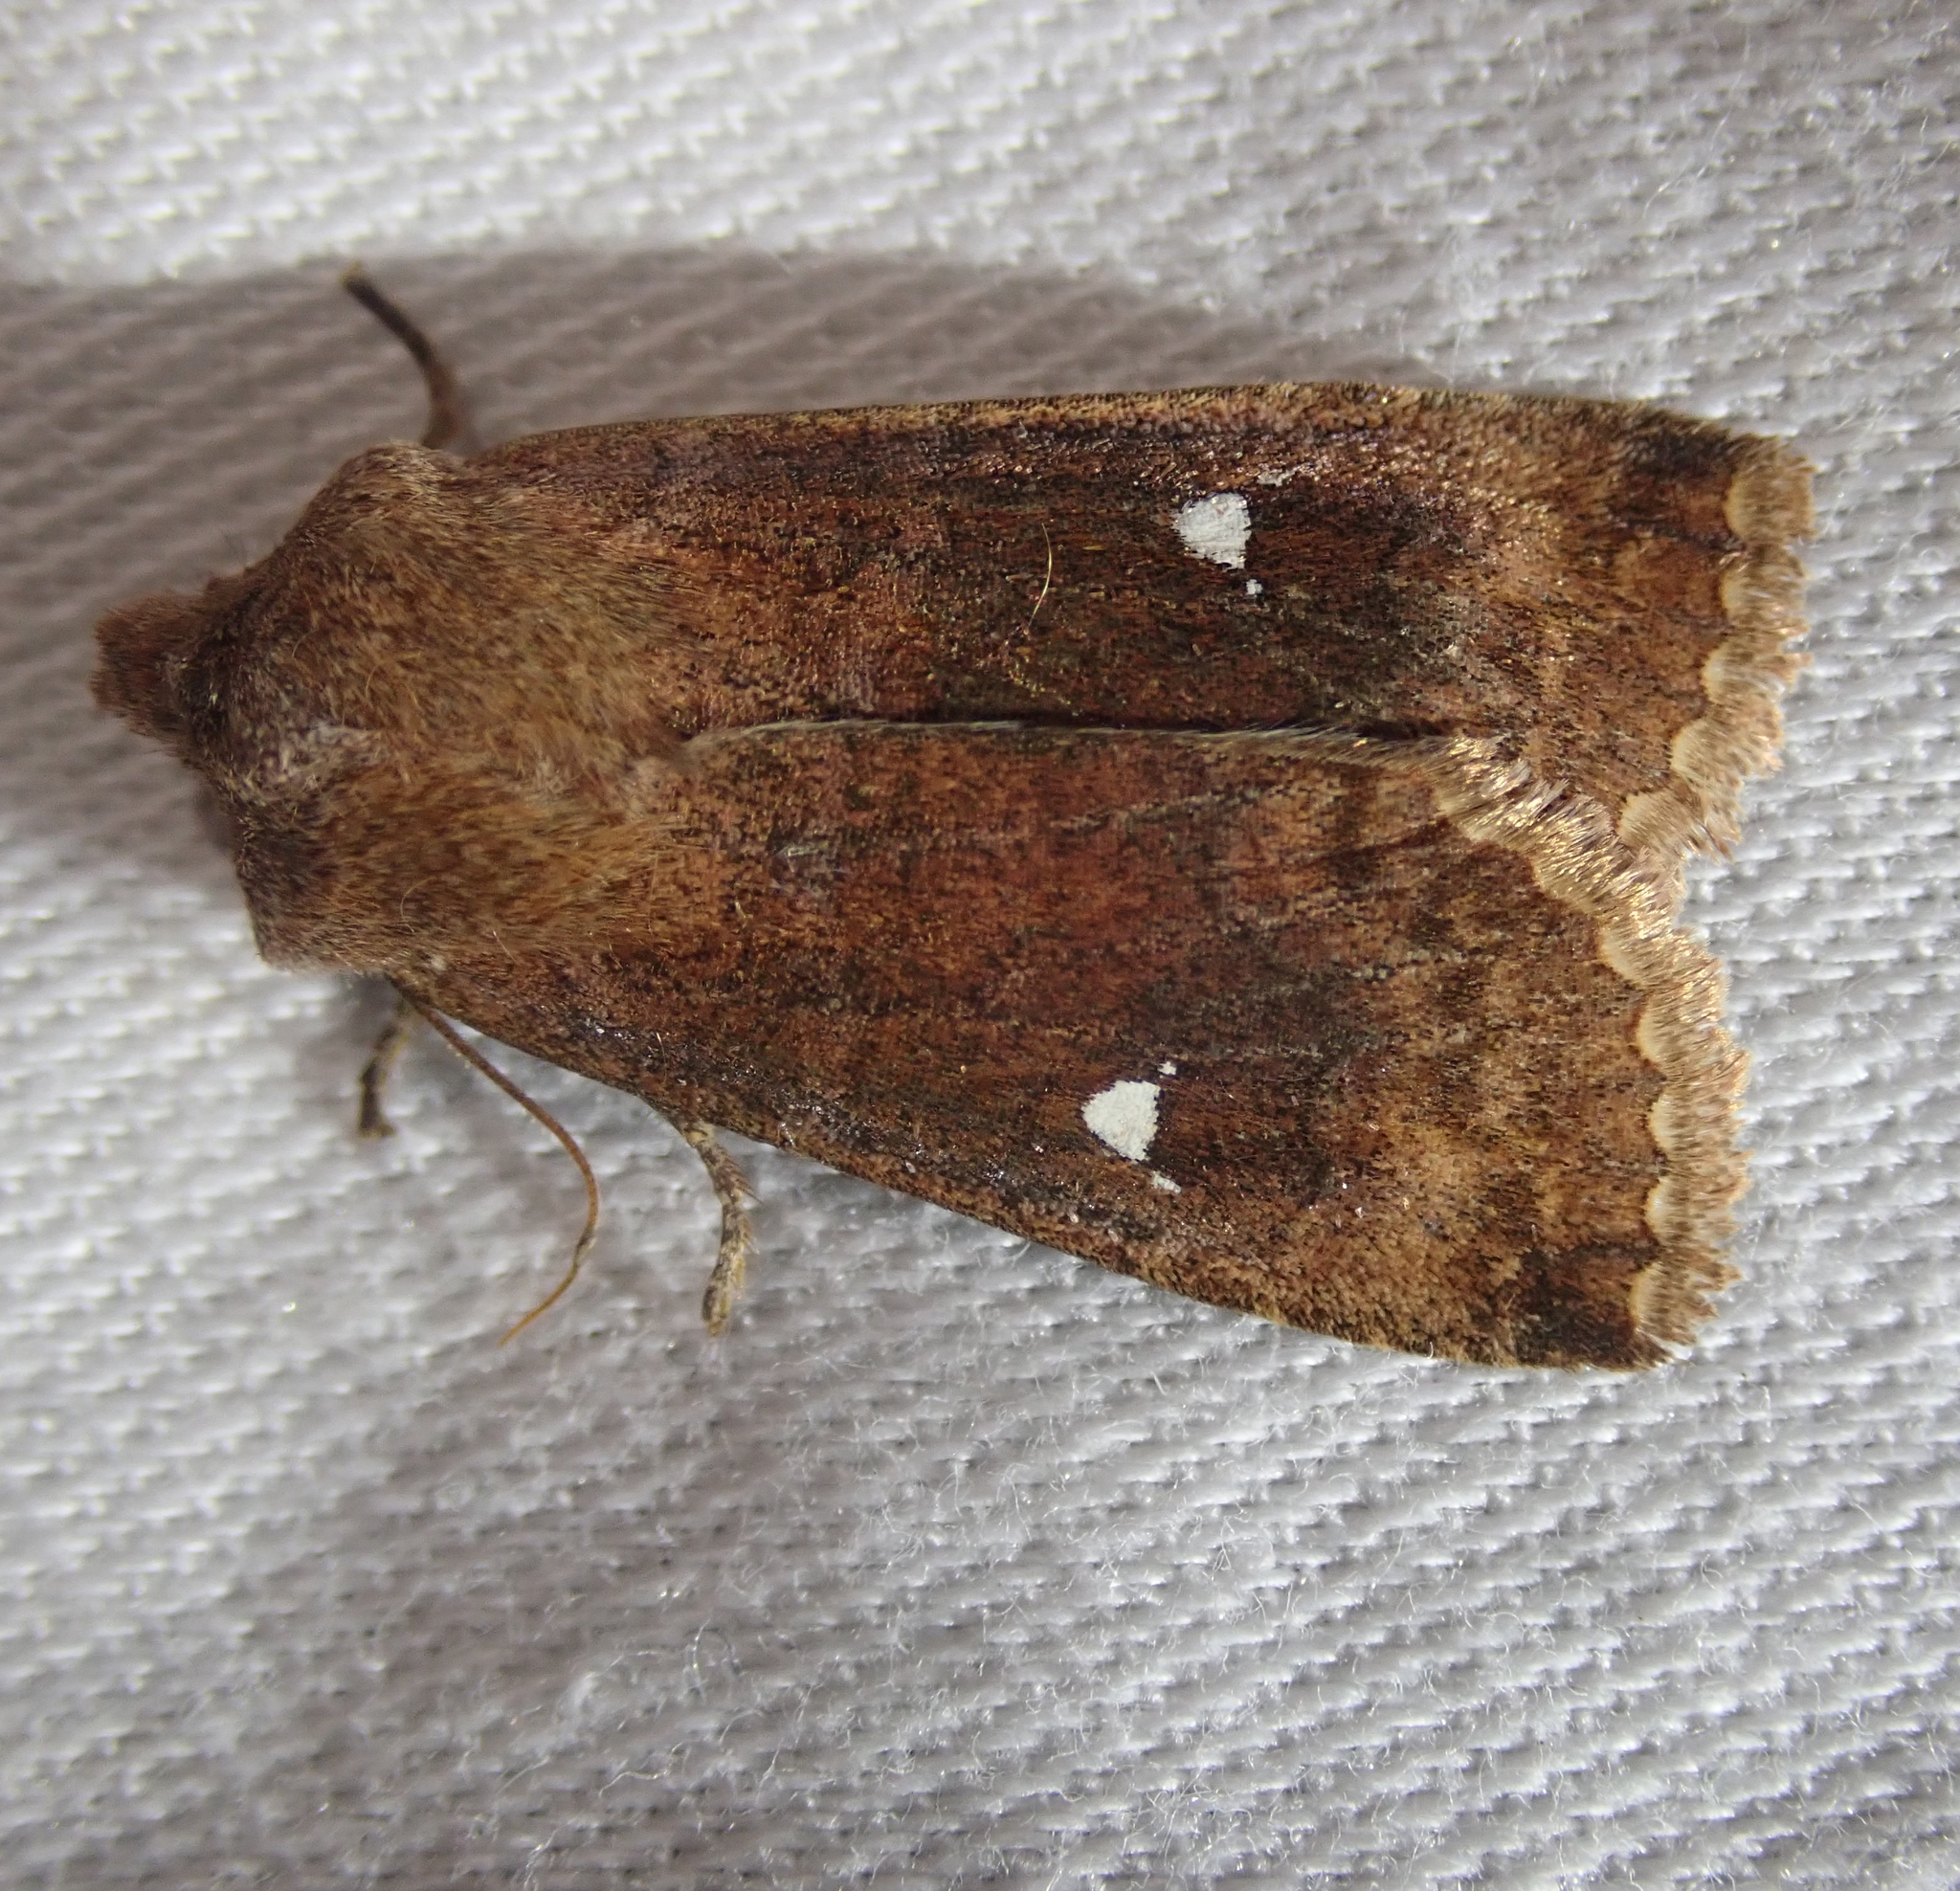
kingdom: Animalia
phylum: Arthropoda
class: Insecta
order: Lepidoptera
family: Noctuidae
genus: Eupsilia
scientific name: Eupsilia transversa
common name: Satellite
